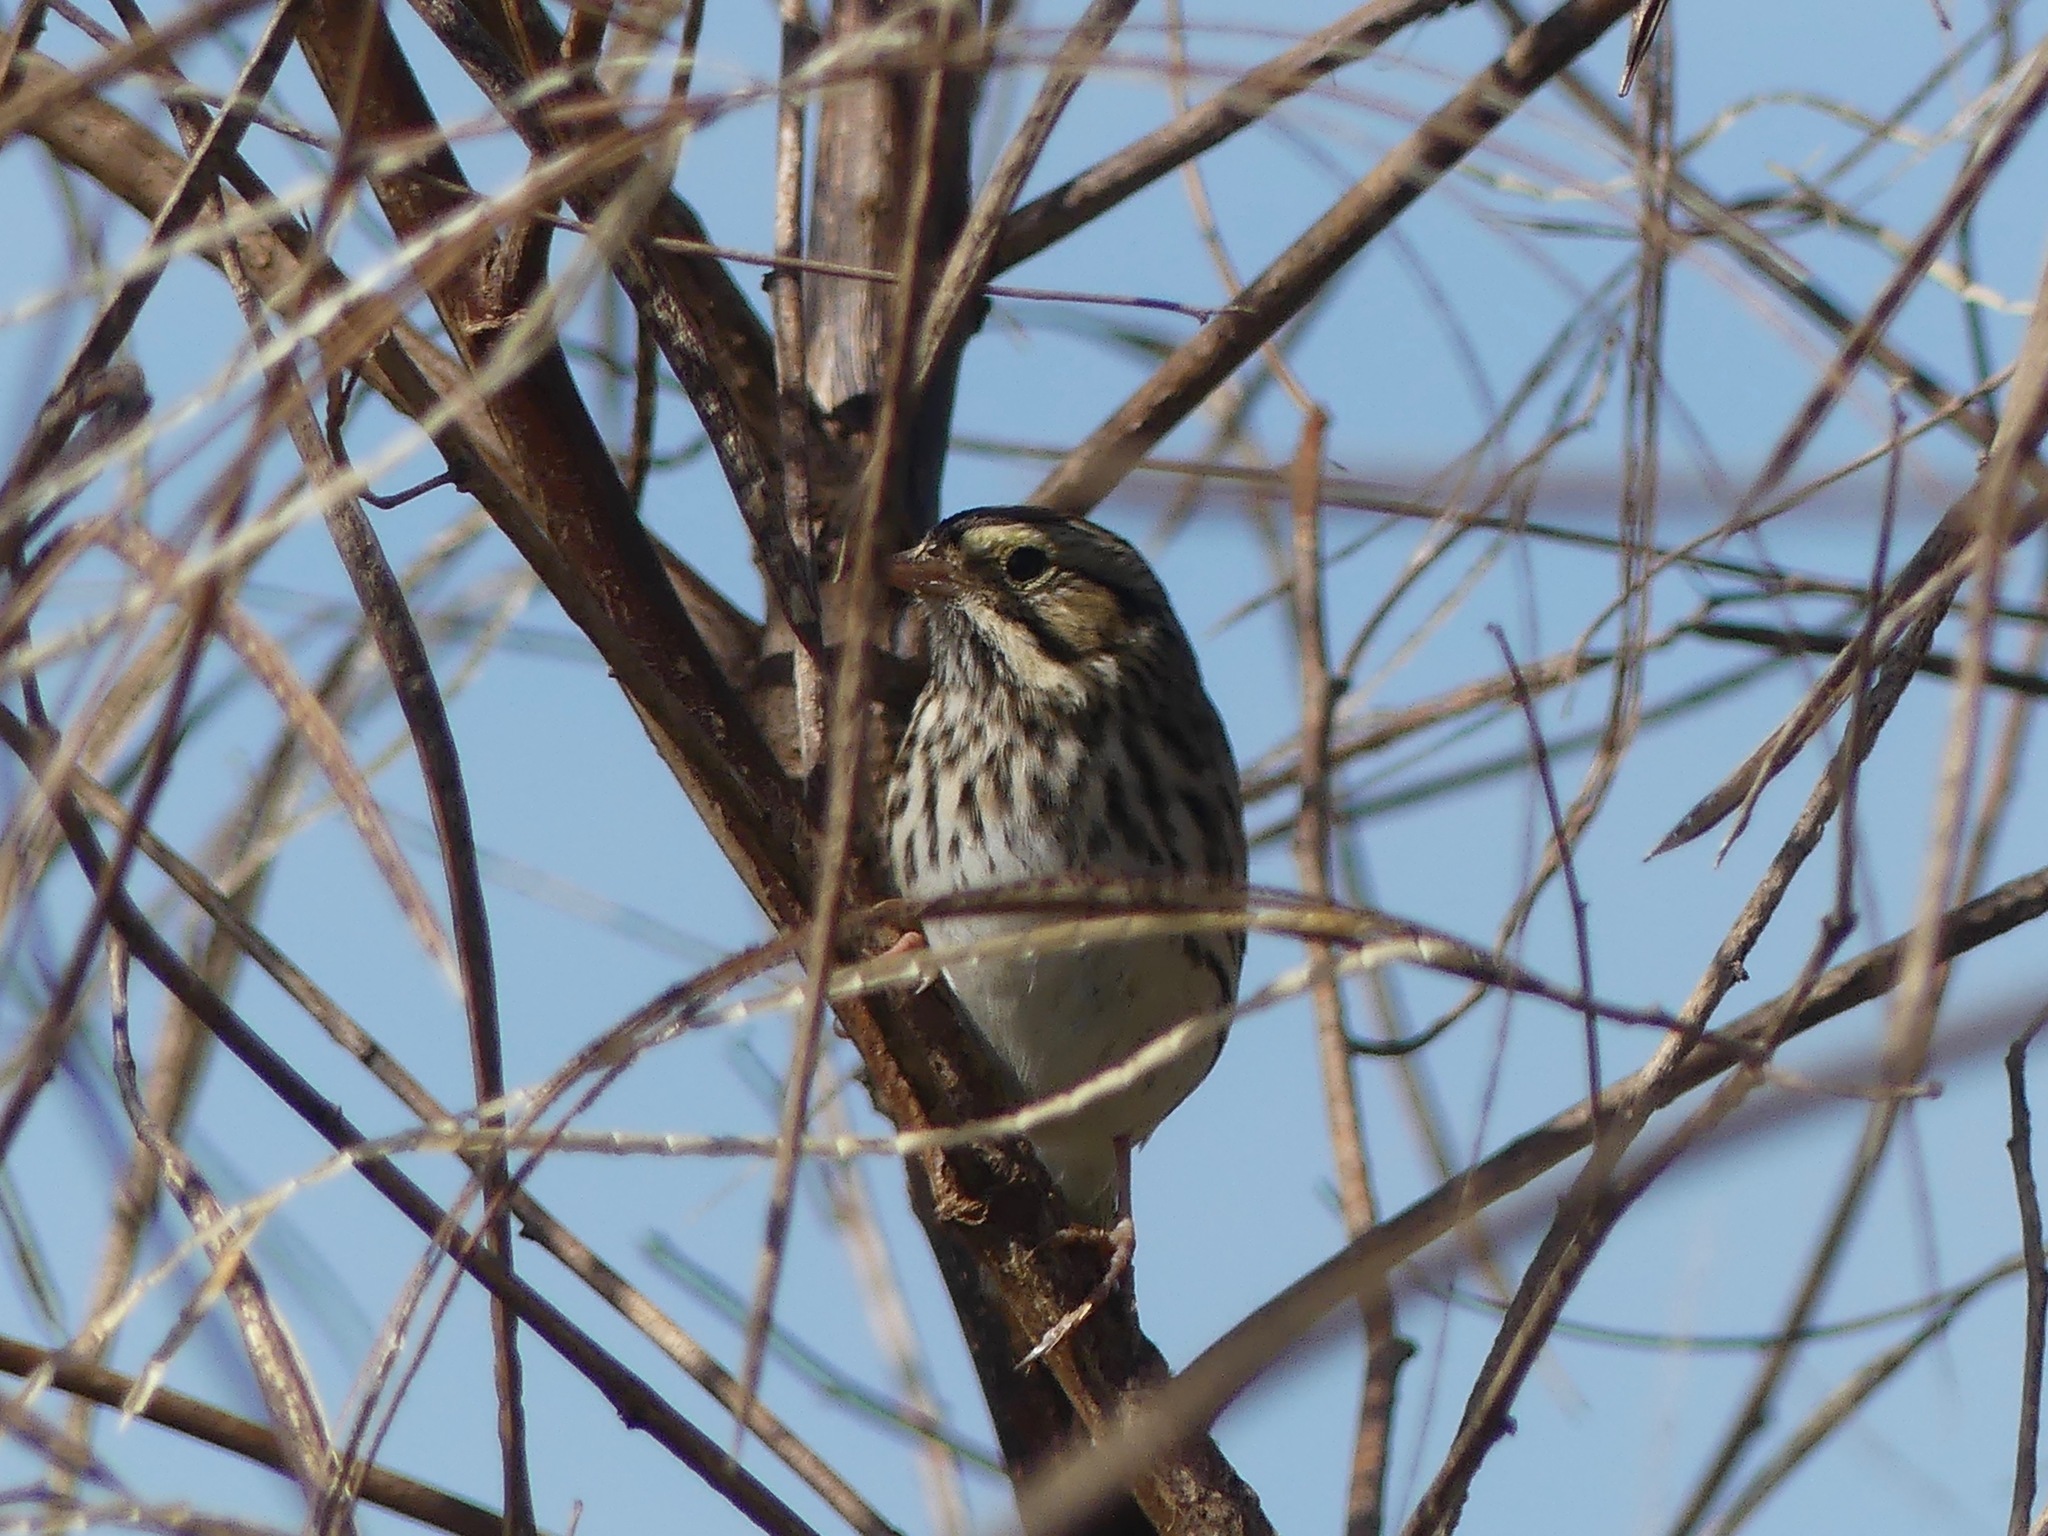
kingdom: Animalia
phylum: Chordata
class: Aves
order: Passeriformes
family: Passerellidae
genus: Passerculus
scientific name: Passerculus sandwichensis
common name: Savannah sparrow
